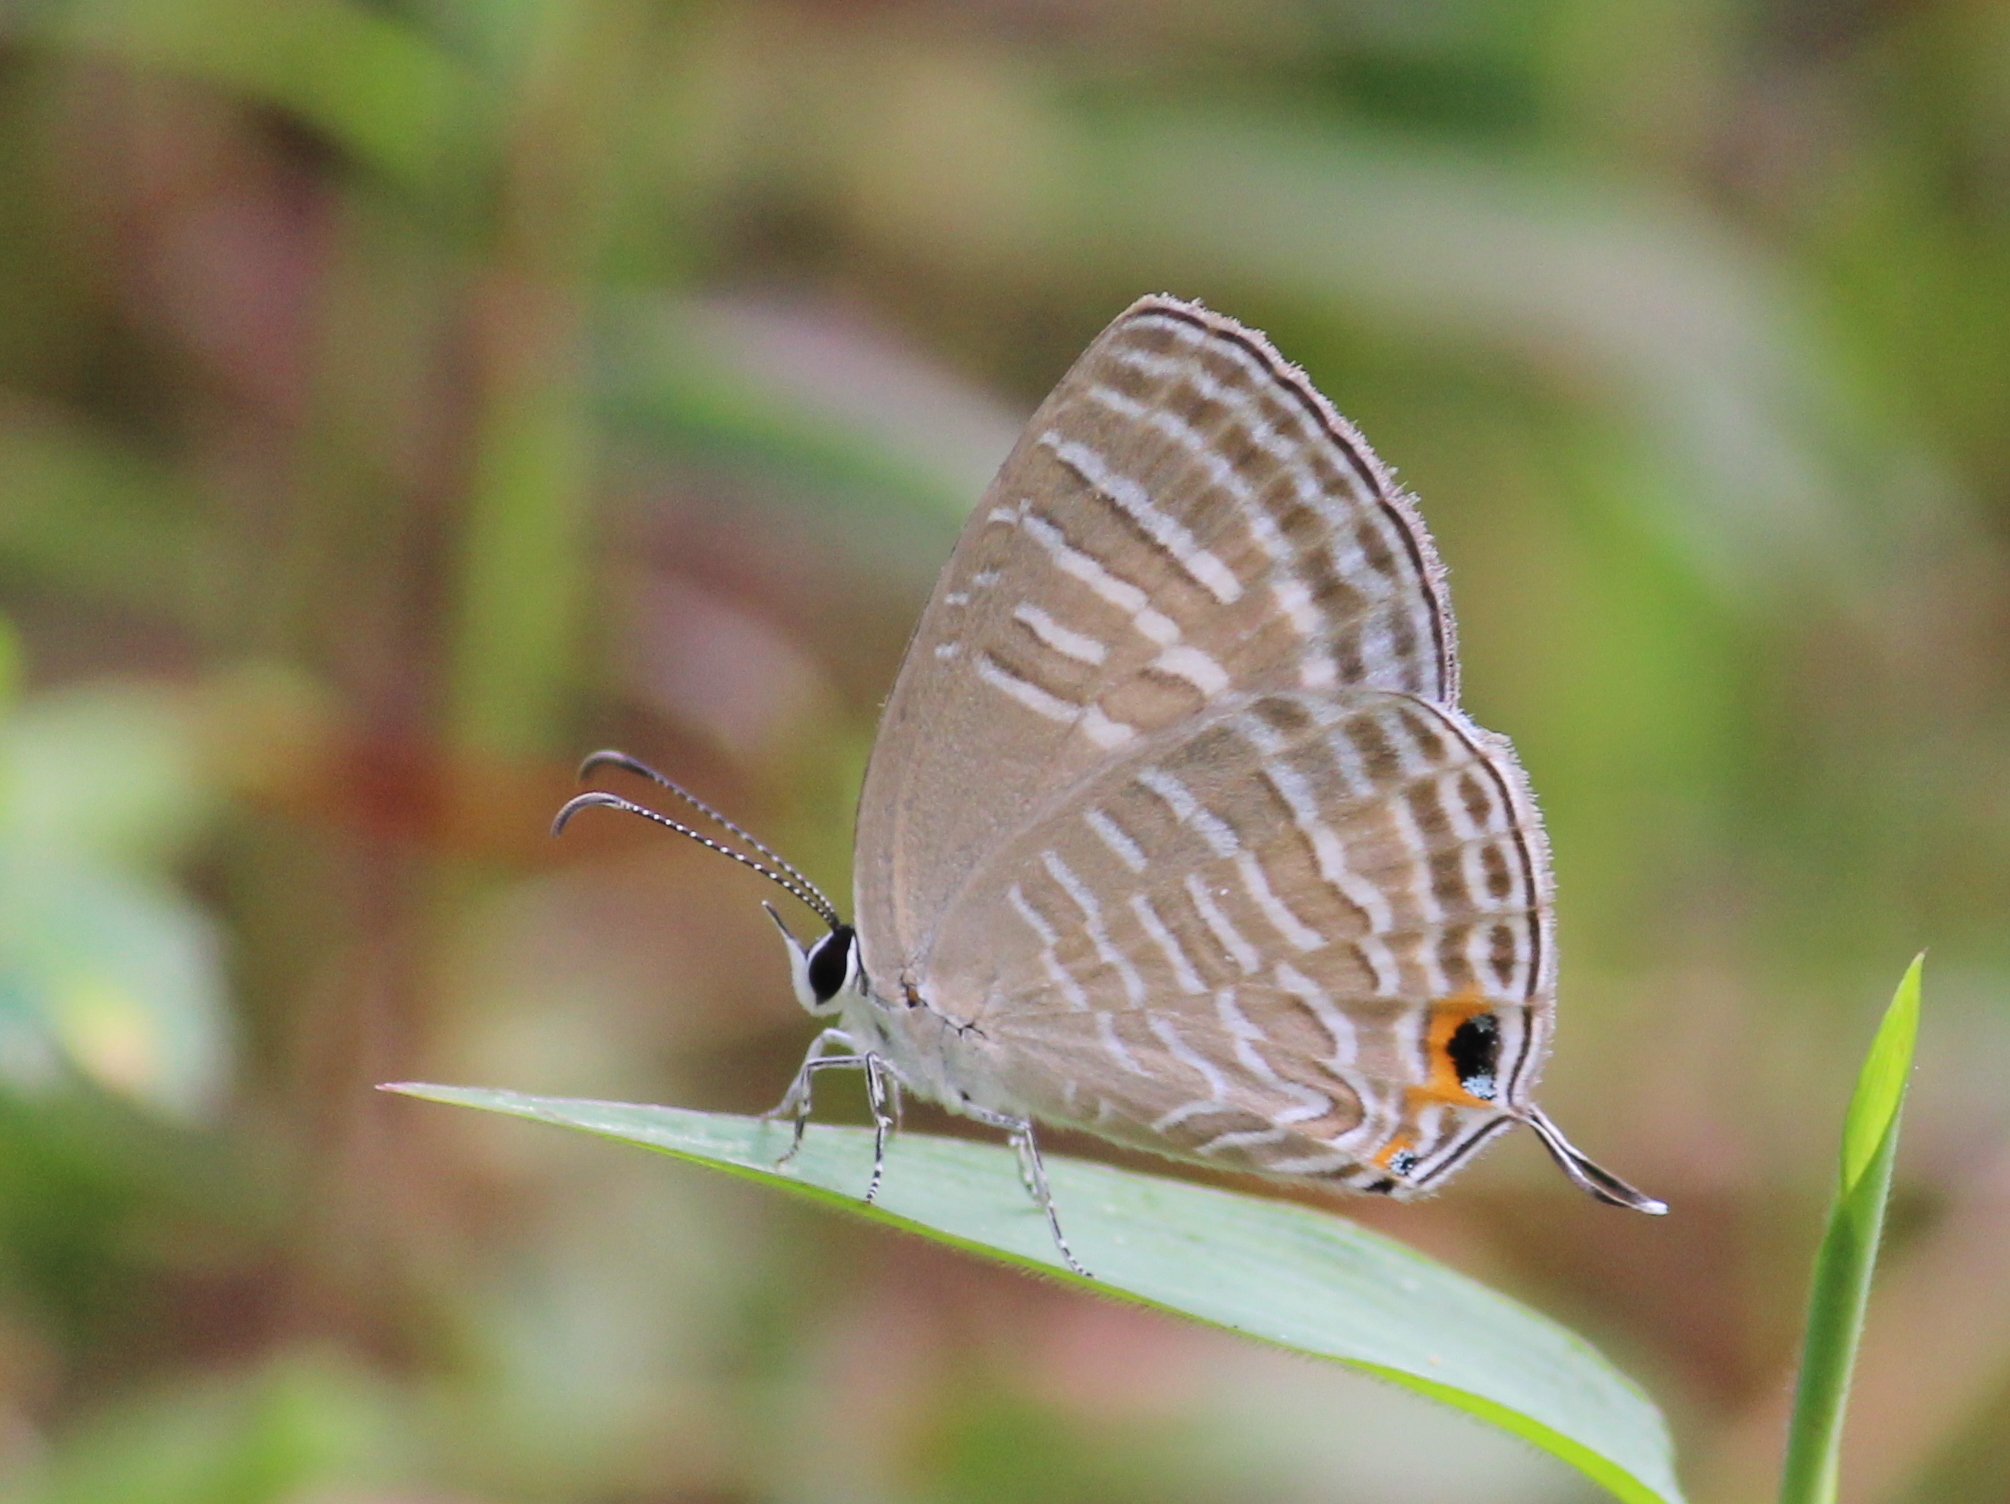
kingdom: Animalia
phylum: Arthropoda
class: Insecta
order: Lepidoptera
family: Lycaenidae
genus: Jamides
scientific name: Jamides celeno
